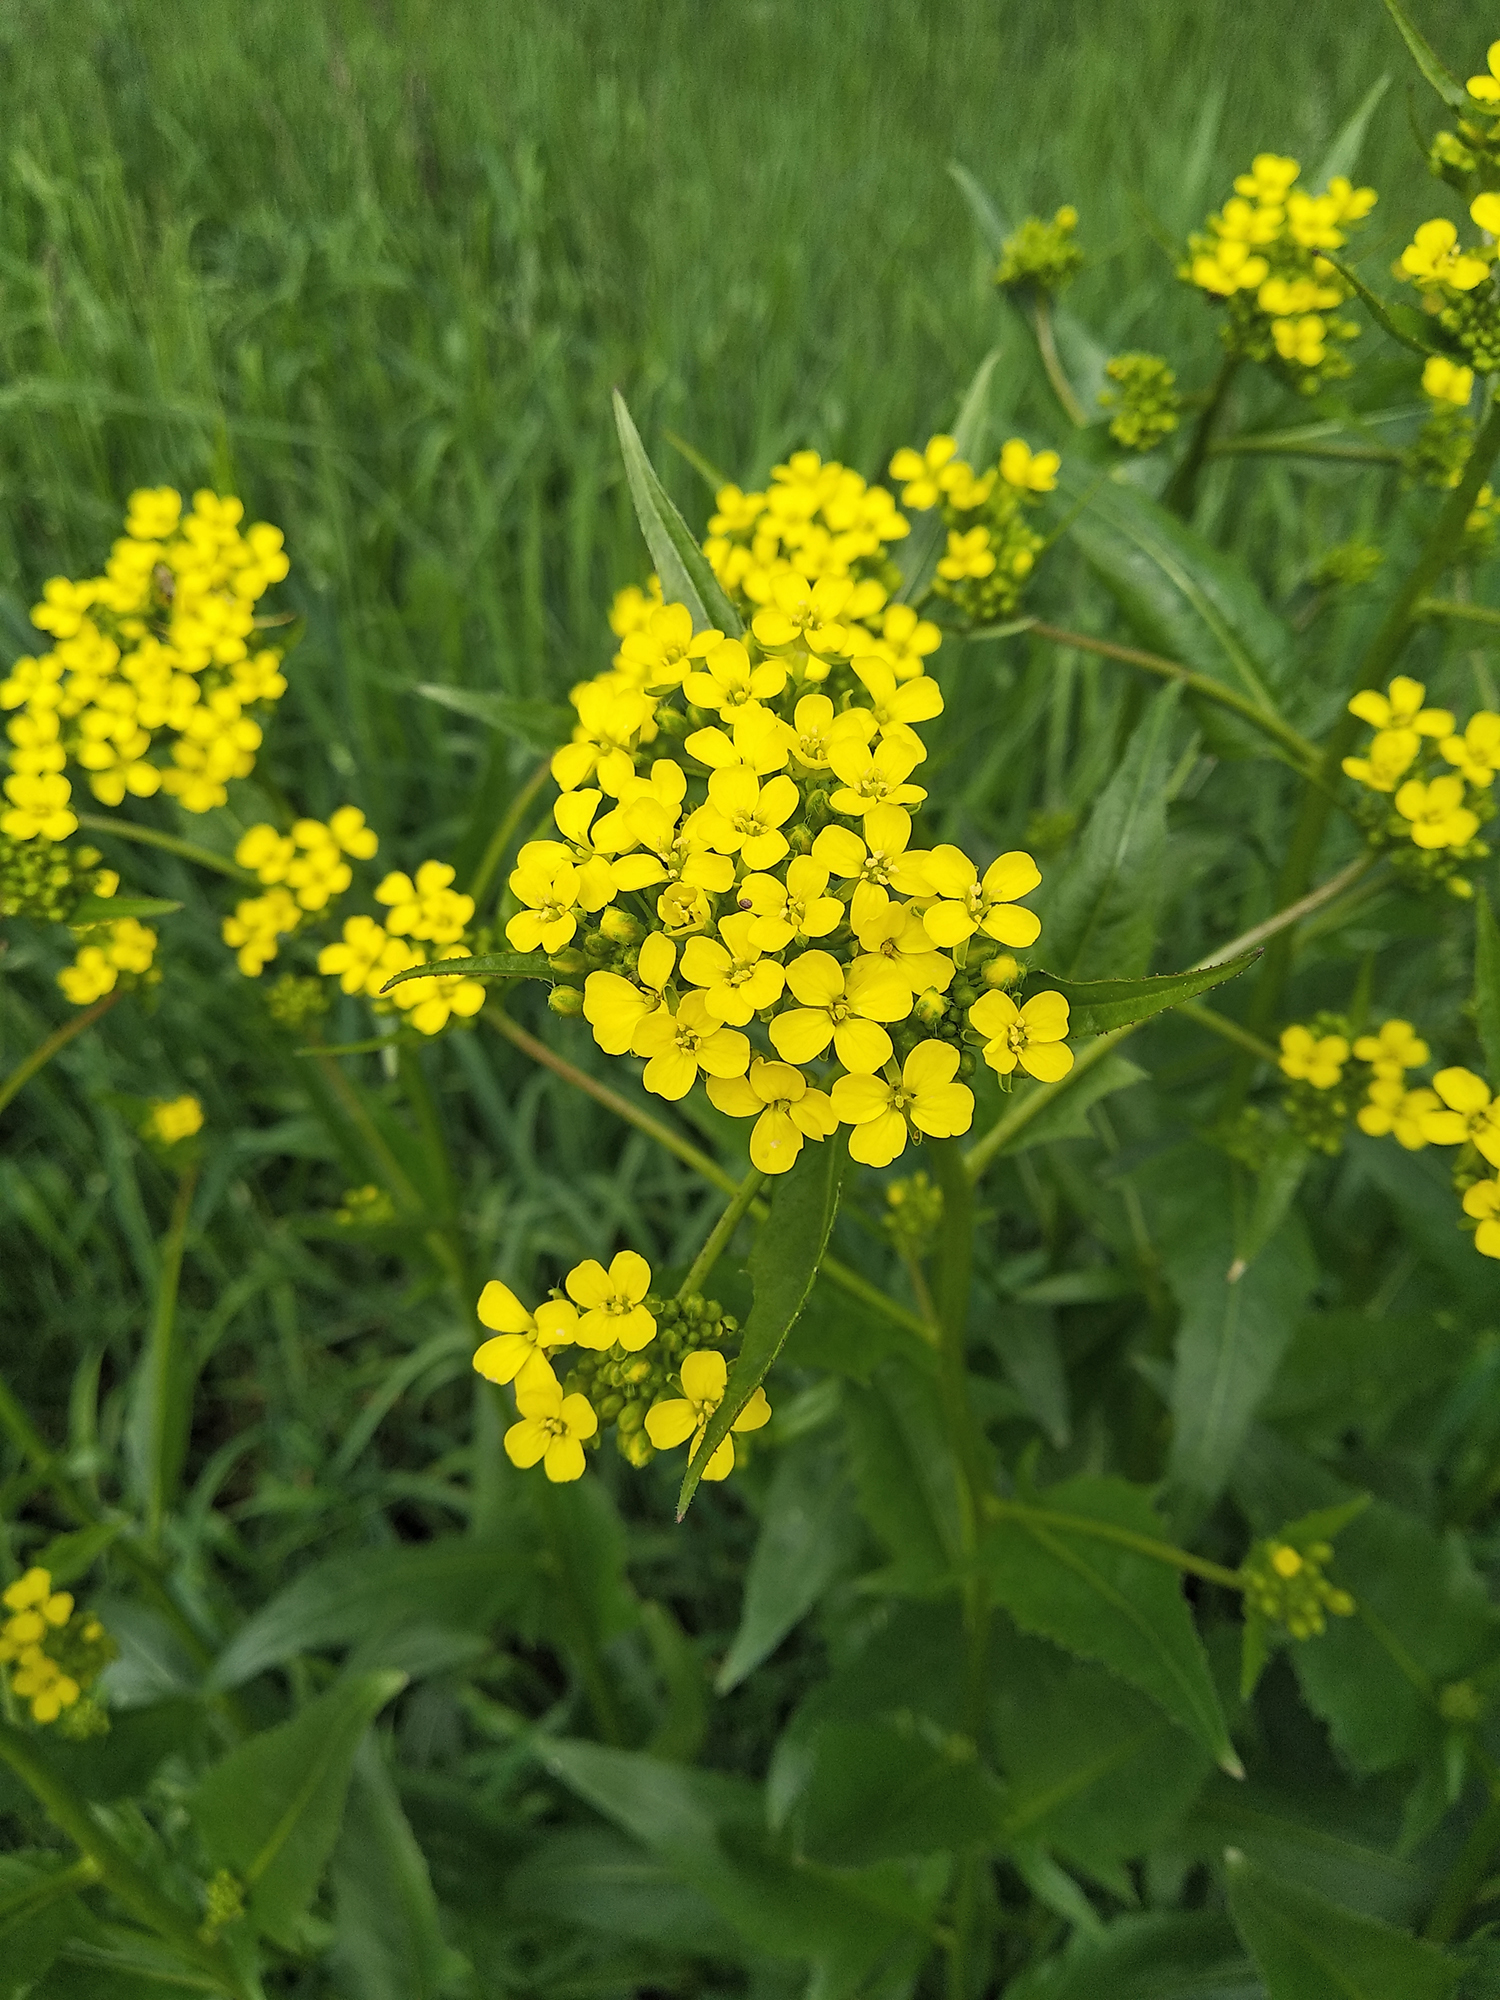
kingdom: Plantae
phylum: Tracheophyta
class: Magnoliopsida
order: Brassicales
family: Brassicaceae
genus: Bunias
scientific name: Bunias orientalis
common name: Warty-cabbage
